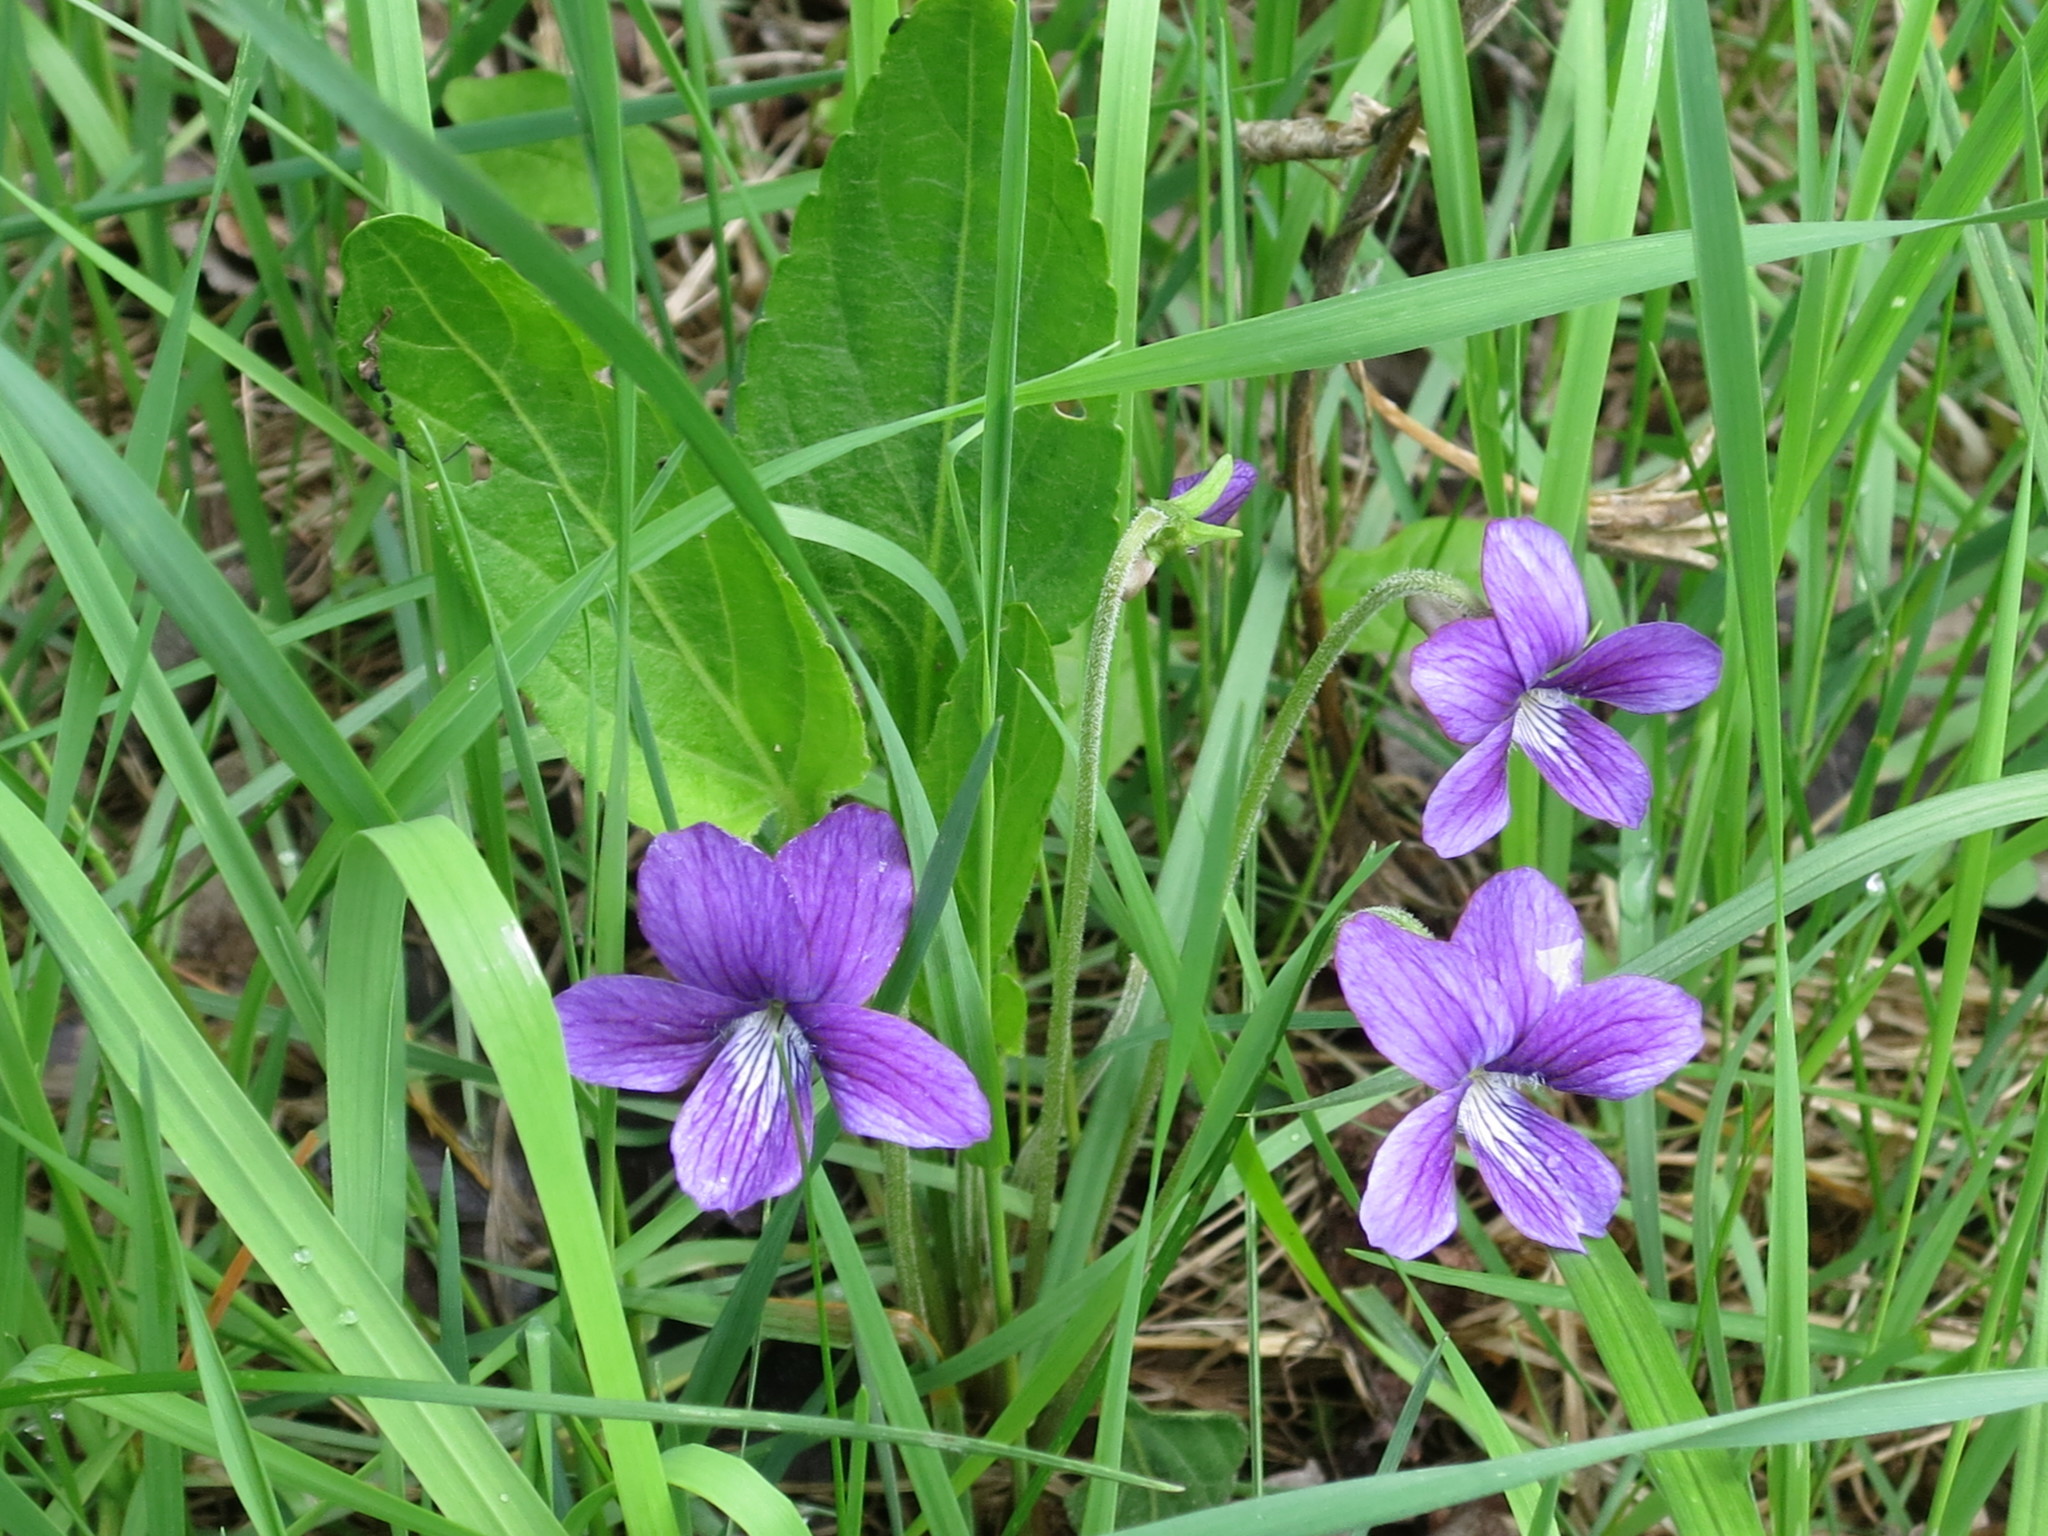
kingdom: Plantae
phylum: Tracheophyta
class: Magnoliopsida
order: Malpighiales
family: Violaceae
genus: Viola
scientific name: Viola mandshurica
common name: Manchuria violet
